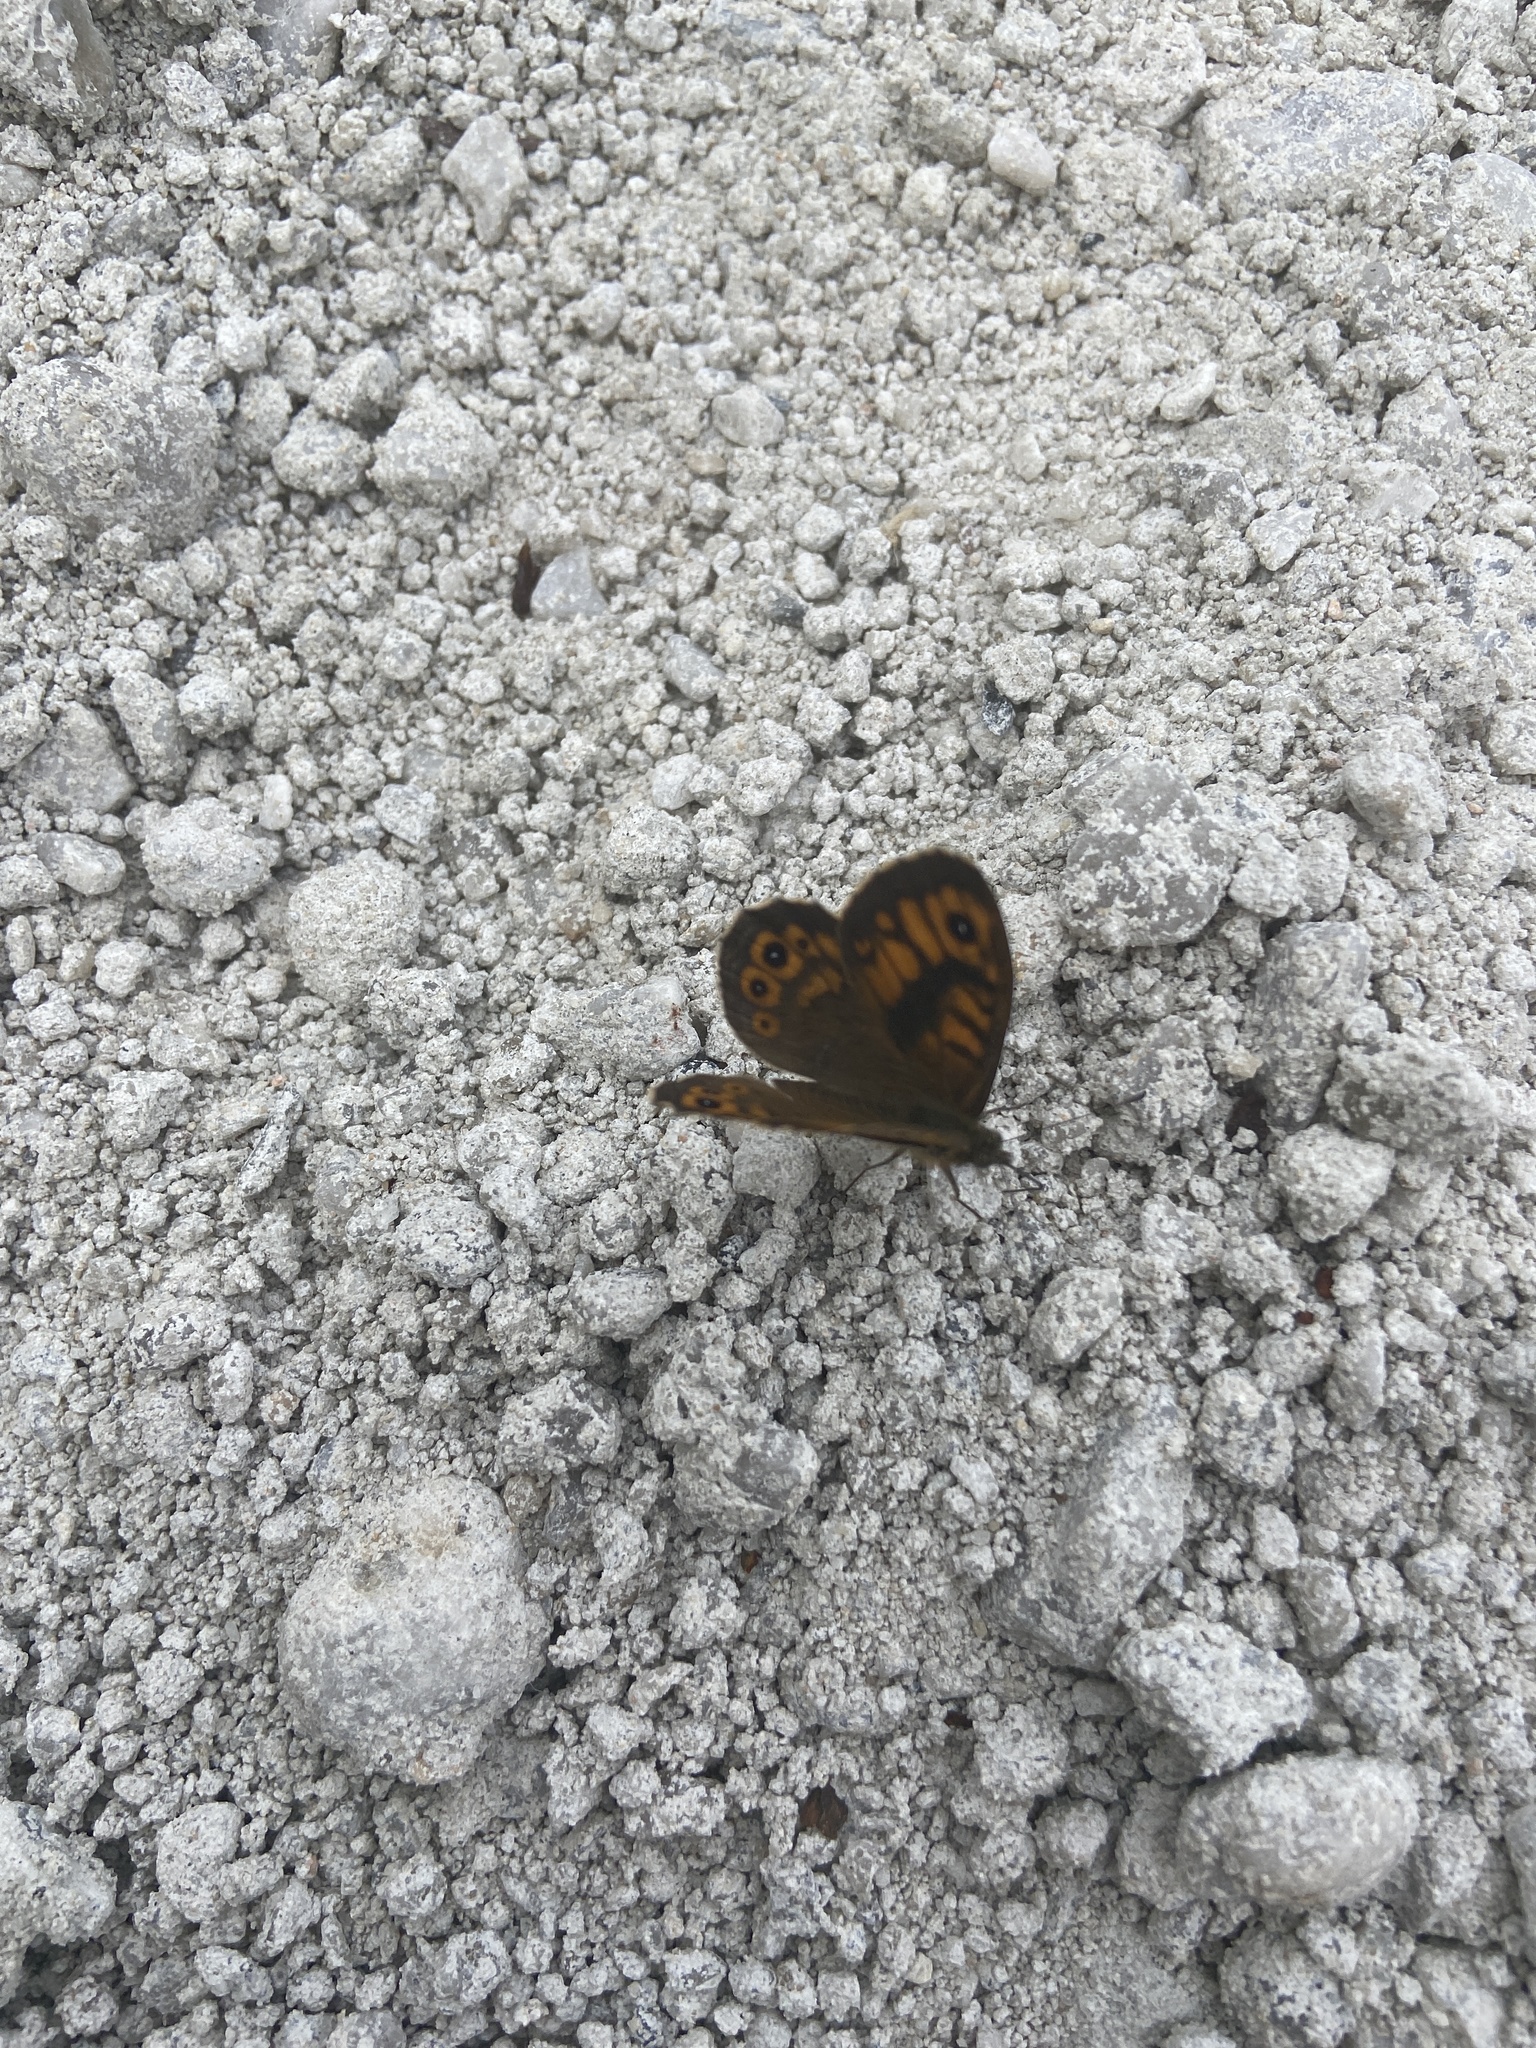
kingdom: Animalia
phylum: Arthropoda
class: Insecta
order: Lepidoptera
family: Nymphalidae
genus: Pararge
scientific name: Pararge Lasiommata megera
